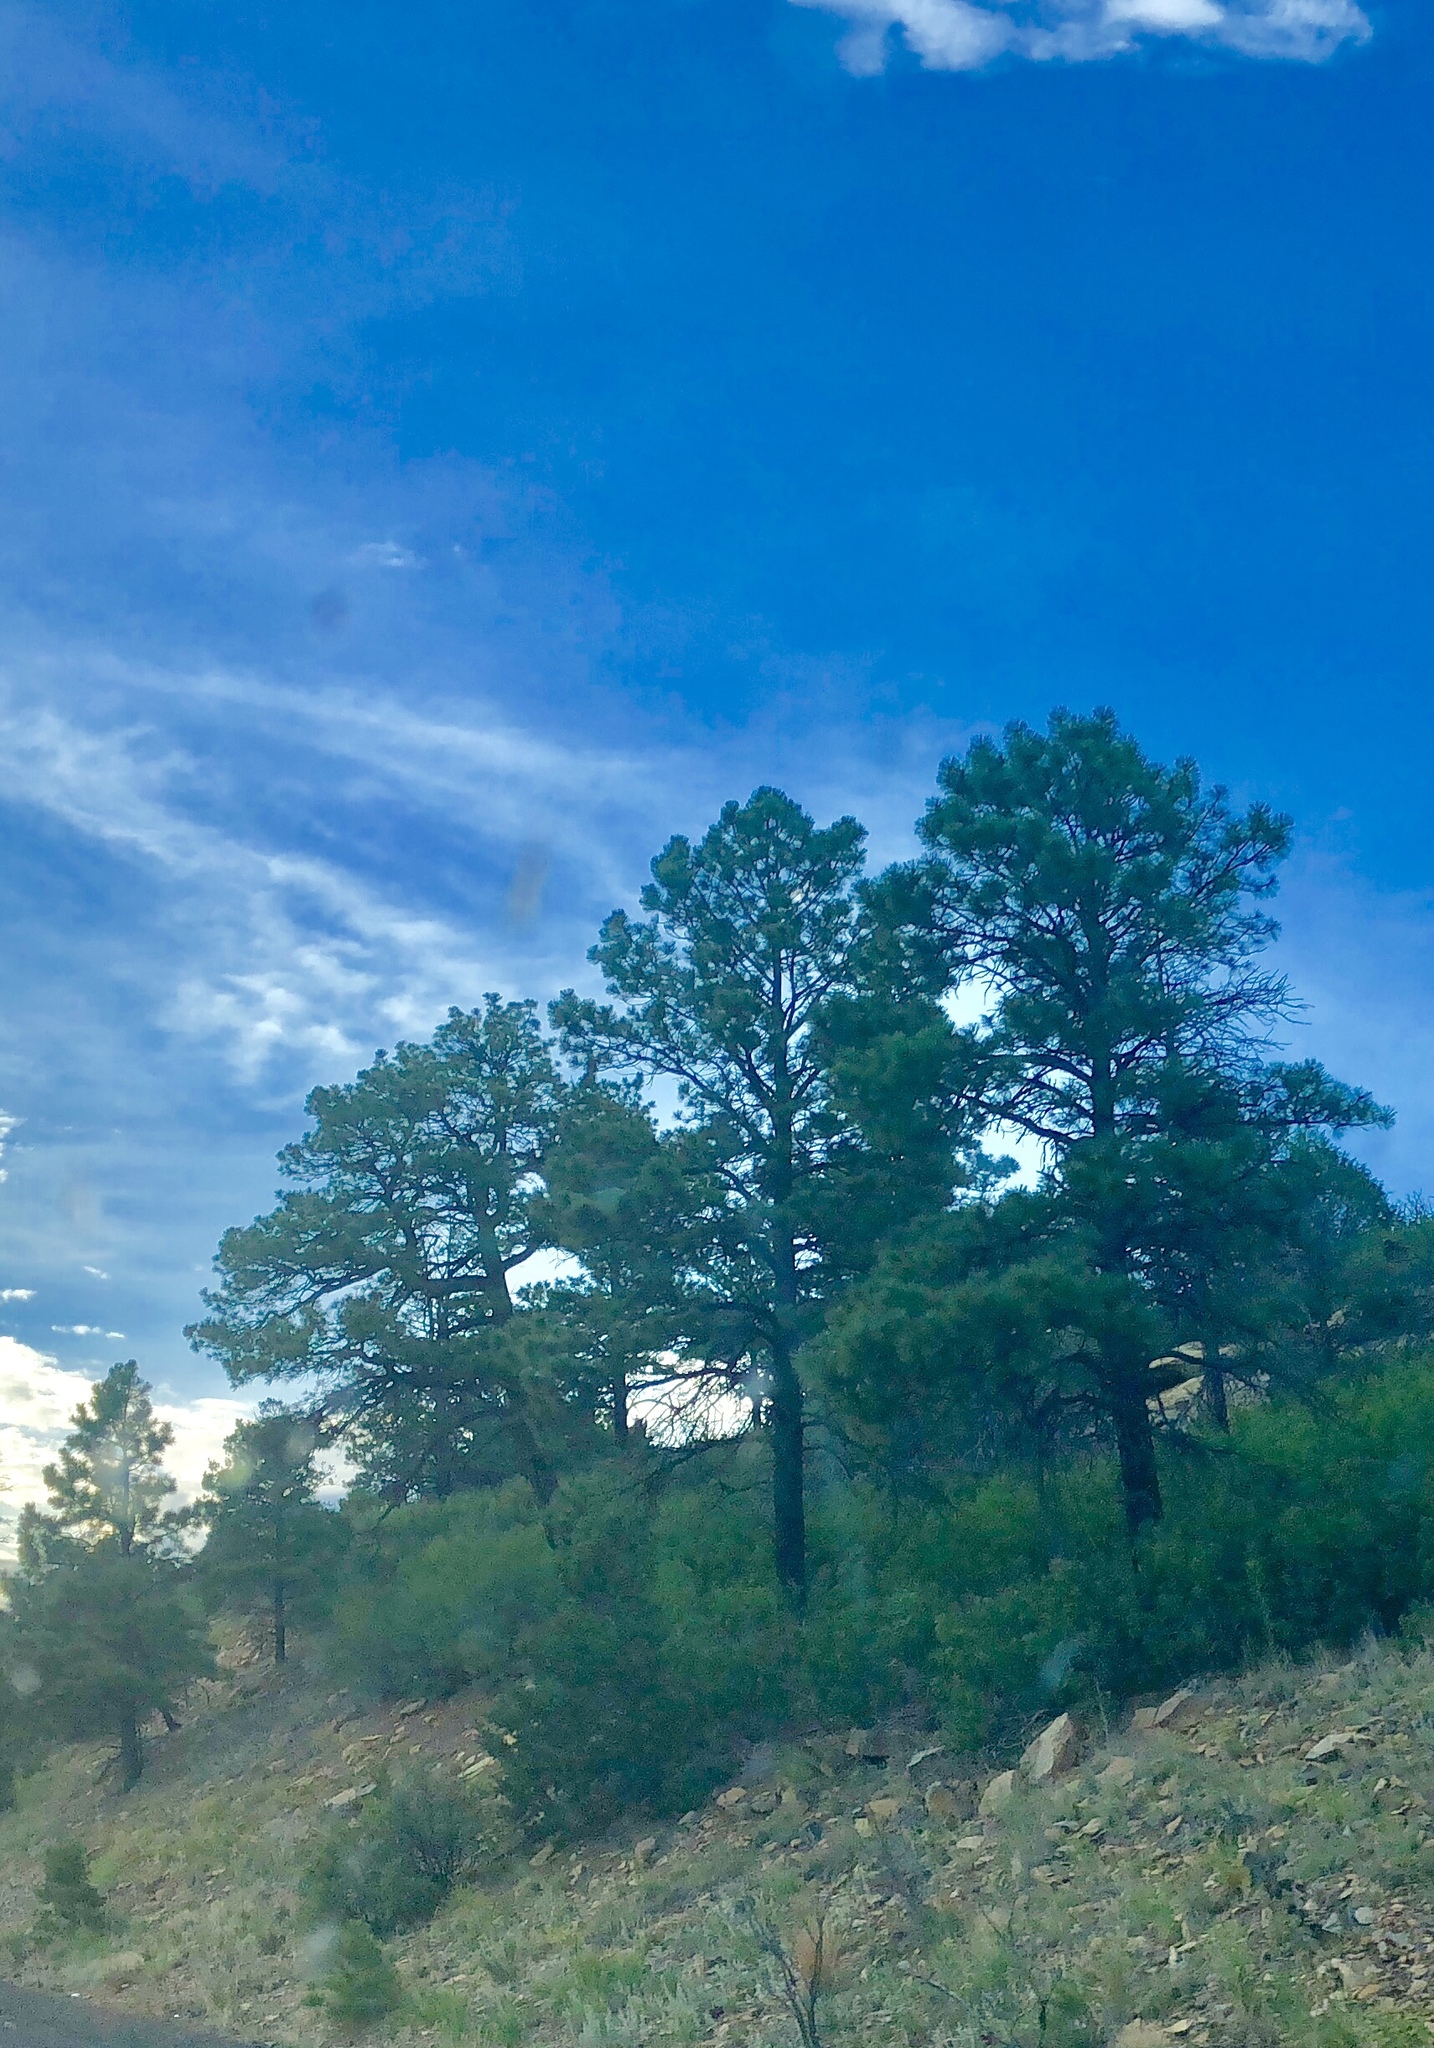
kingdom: Plantae
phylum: Tracheophyta
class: Pinopsida
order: Pinales
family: Pinaceae
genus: Pinus
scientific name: Pinus ponderosa
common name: Western yellow-pine
